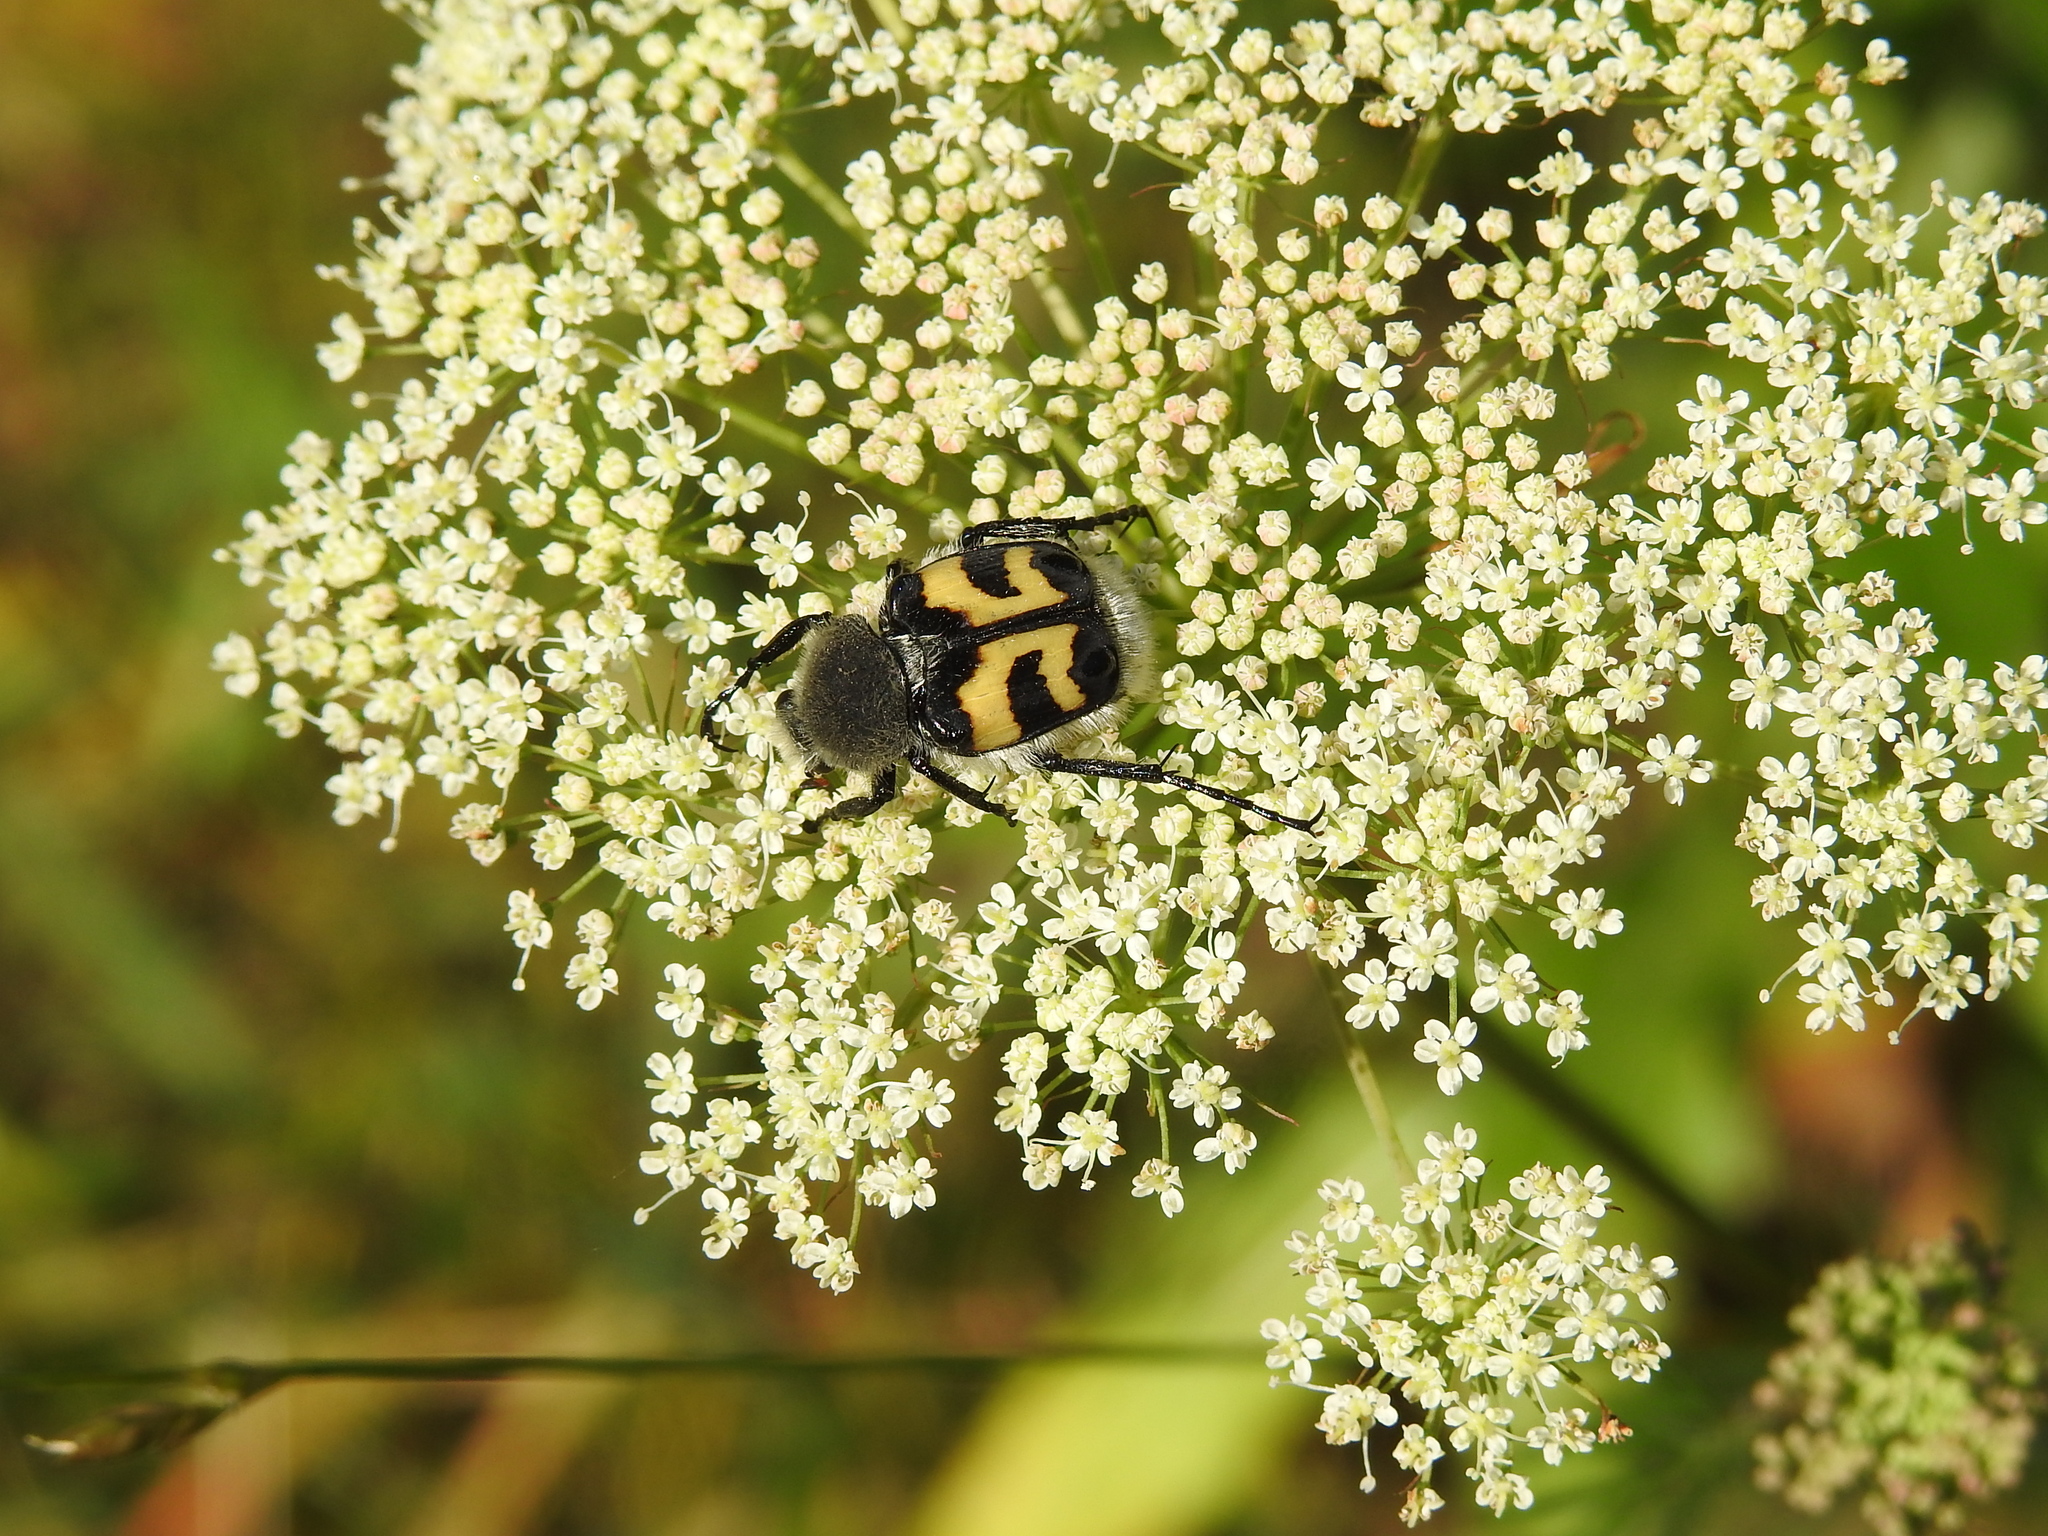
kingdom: Animalia
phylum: Arthropoda
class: Insecta
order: Coleoptera
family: Scarabaeidae
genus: Trichius
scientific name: Trichius fasciatus
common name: Bee beetle
